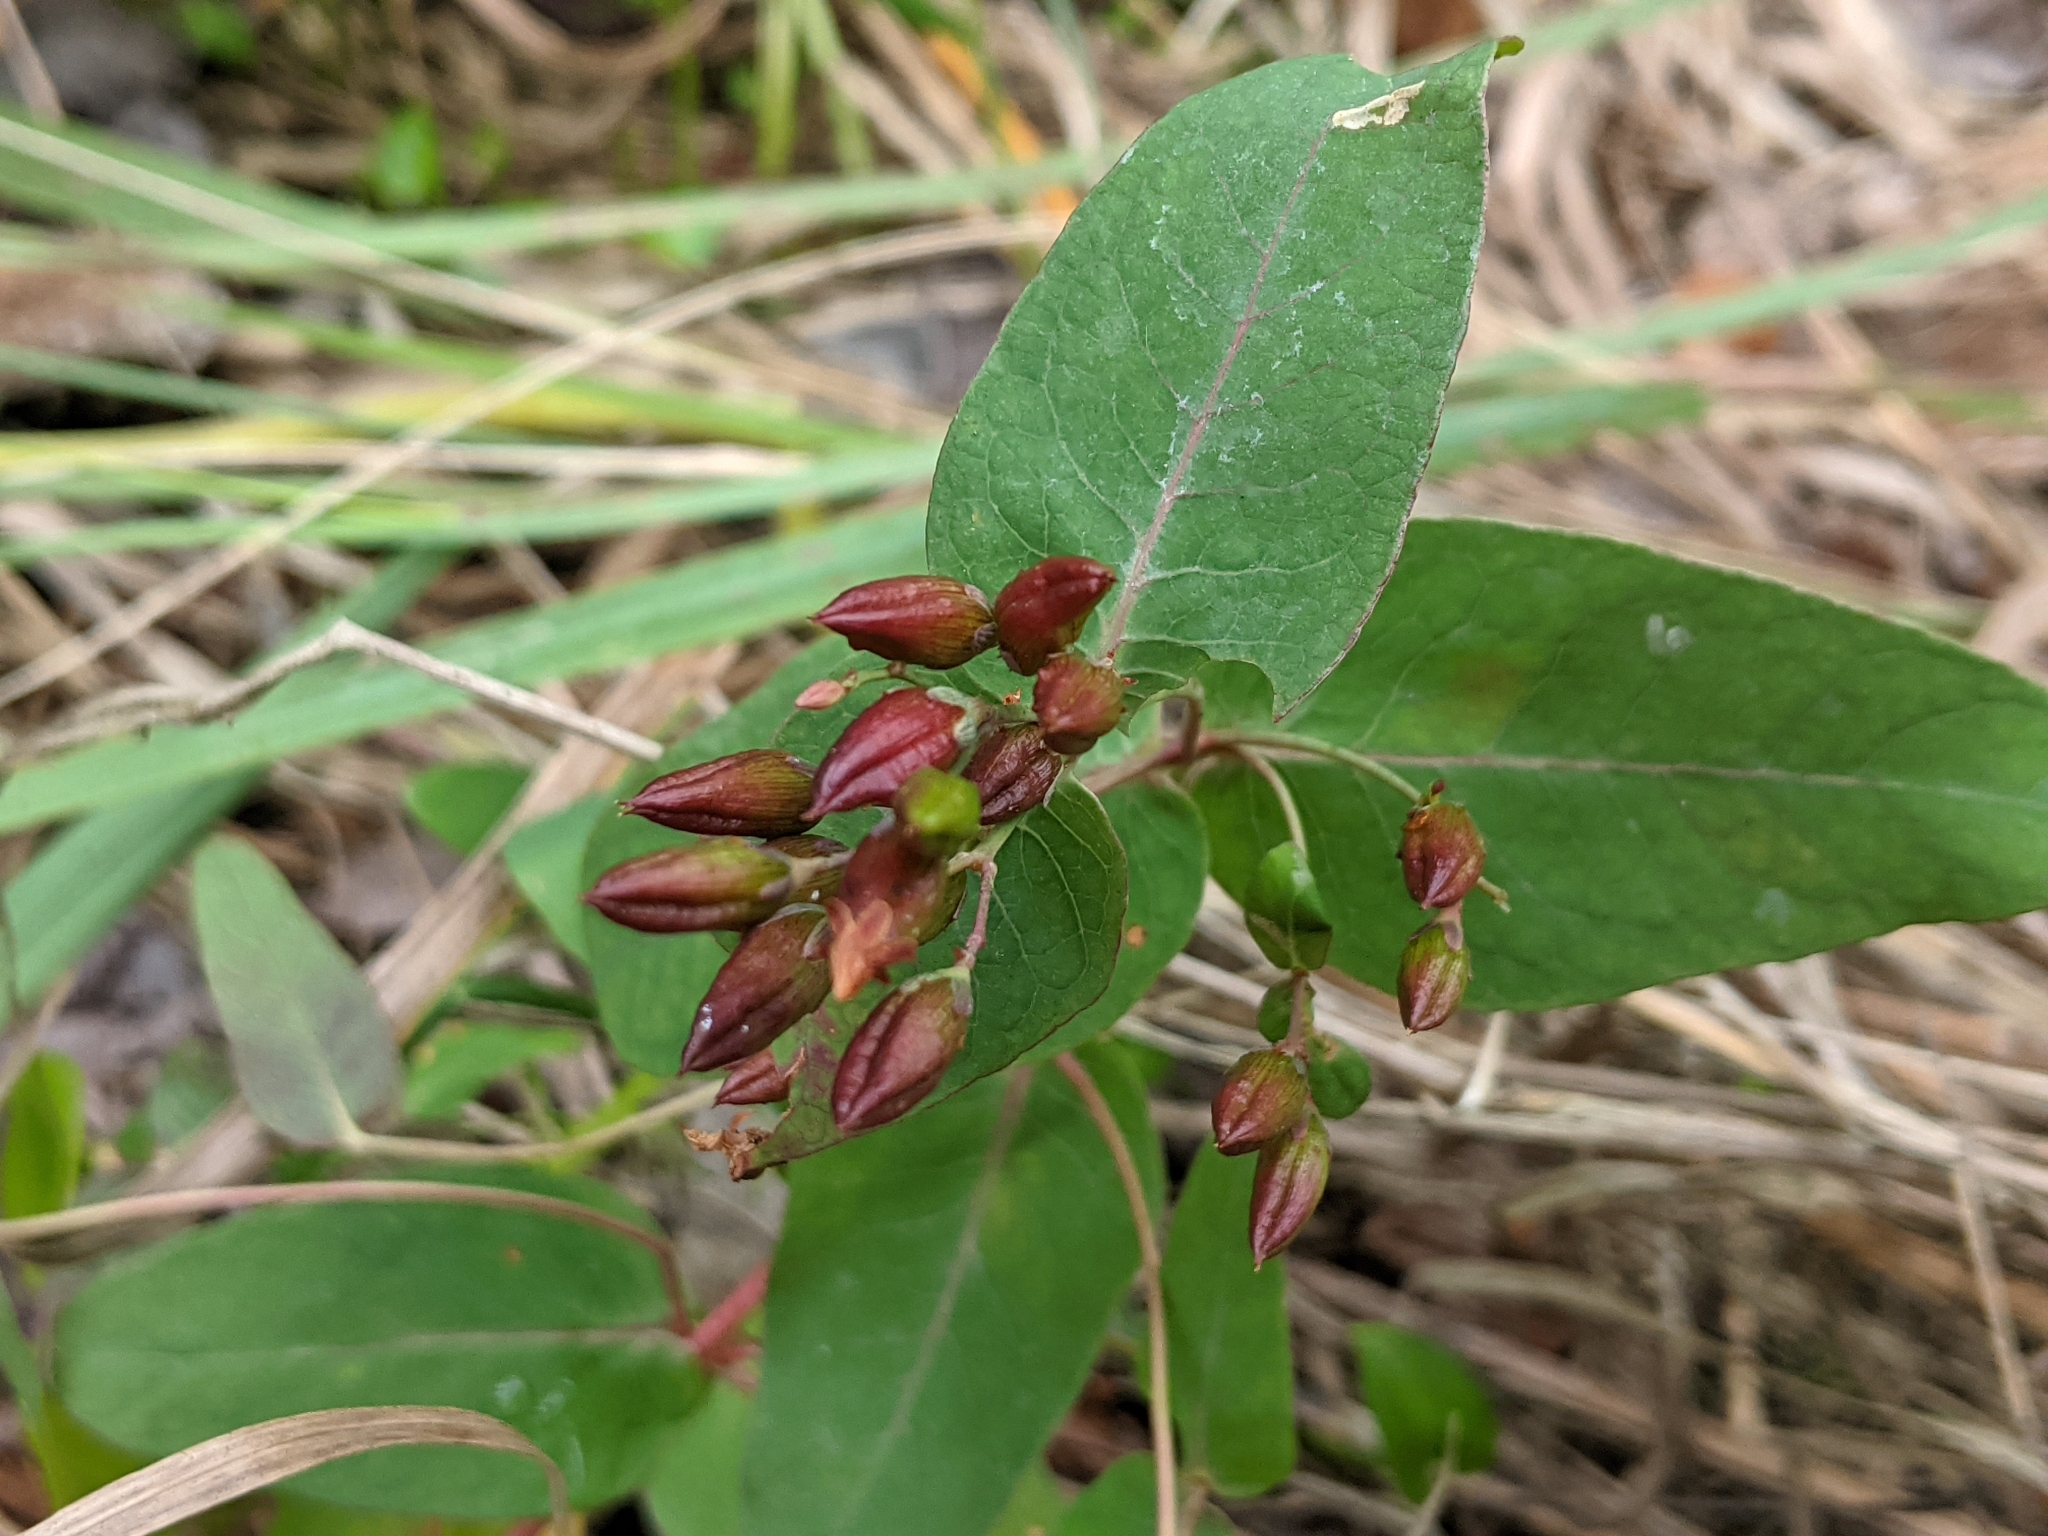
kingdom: Plantae
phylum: Tracheophyta
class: Magnoliopsida
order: Malpighiales
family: Hypericaceae
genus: Triadenum
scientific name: Triadenum fraseri
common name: Fraser's marsh st. johnswort
